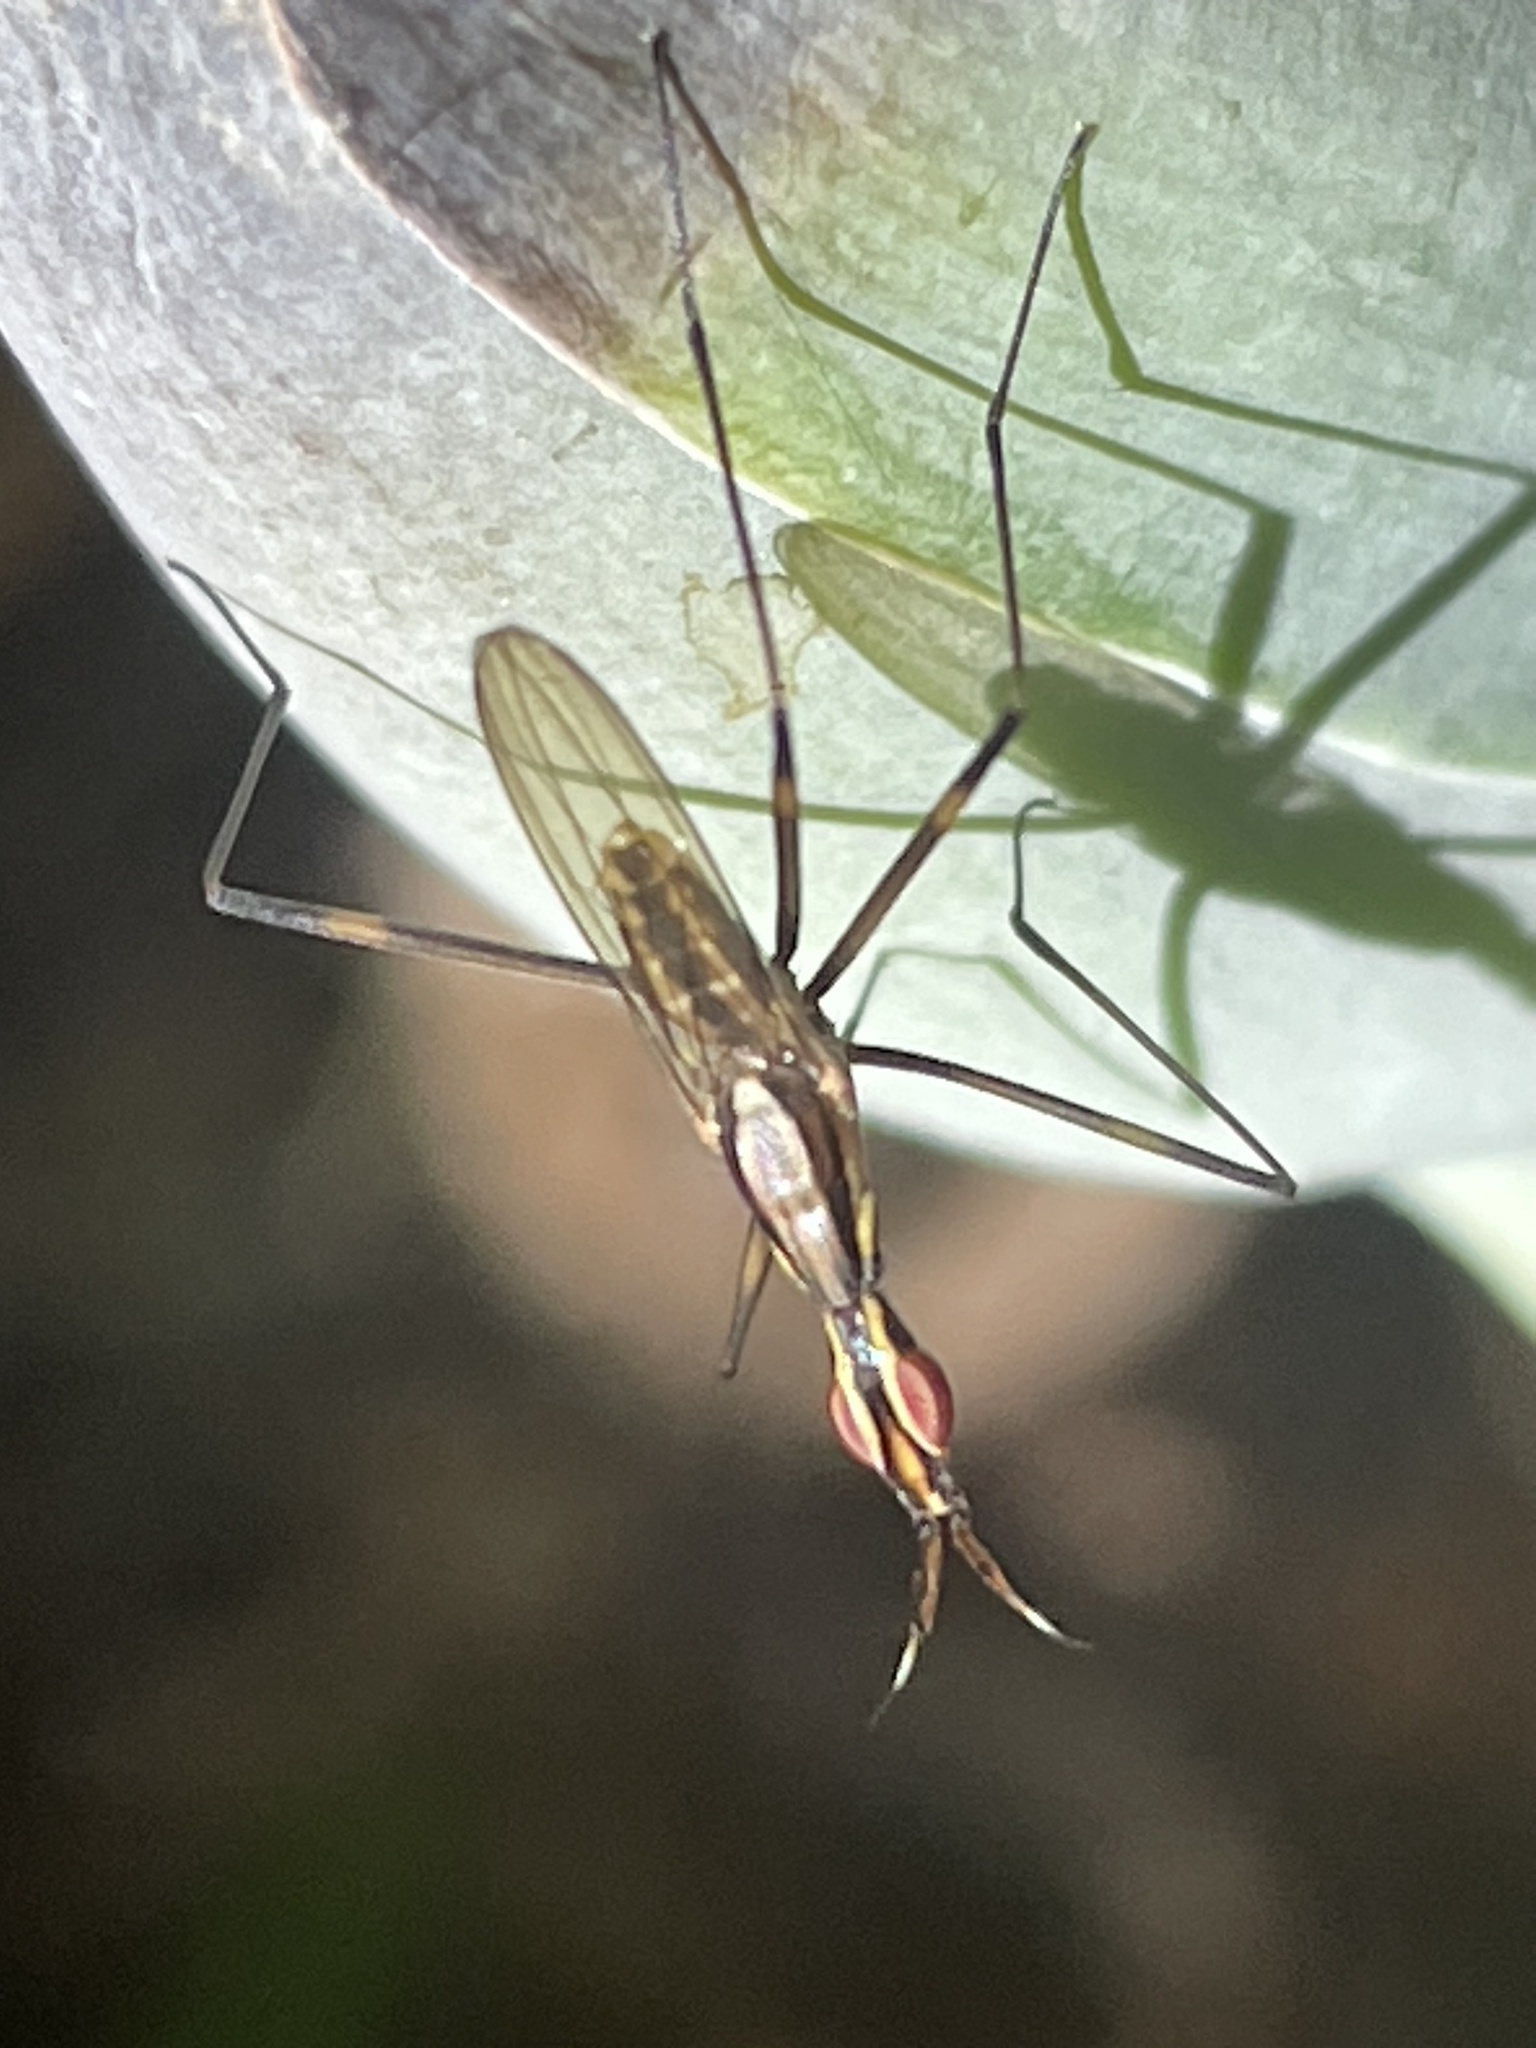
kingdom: Animalia
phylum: Arthropoda
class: Insecta
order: Diptera
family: Neriidae
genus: Derocephalus
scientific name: Derocephalus angusticollis
